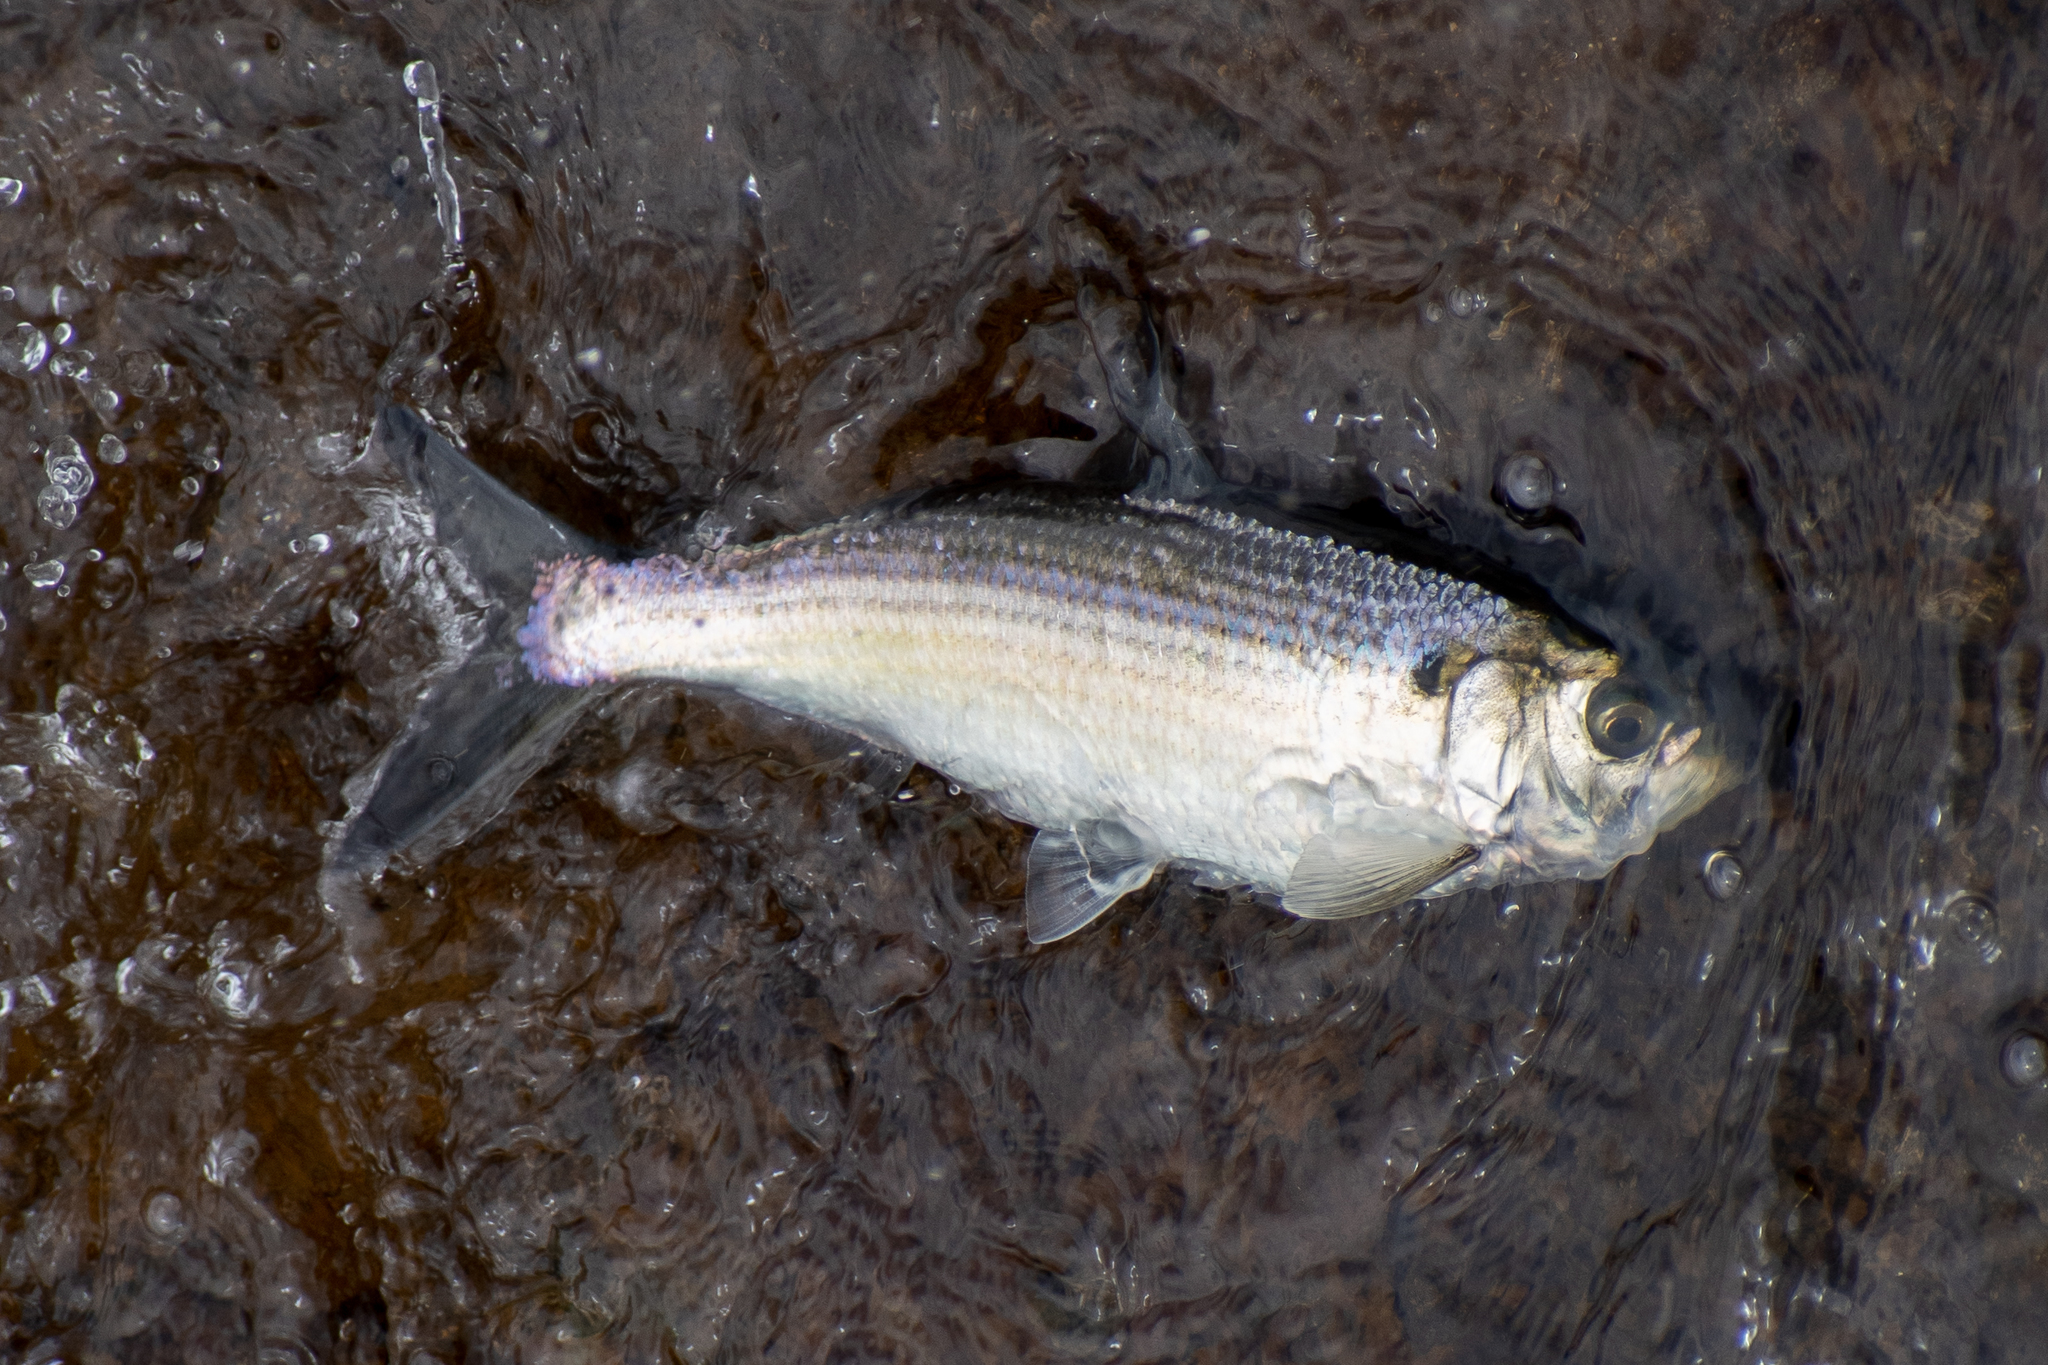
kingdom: Animalia
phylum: Chordata
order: Clupeiformes
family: Clupeidae
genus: Alosa
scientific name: Alosa
